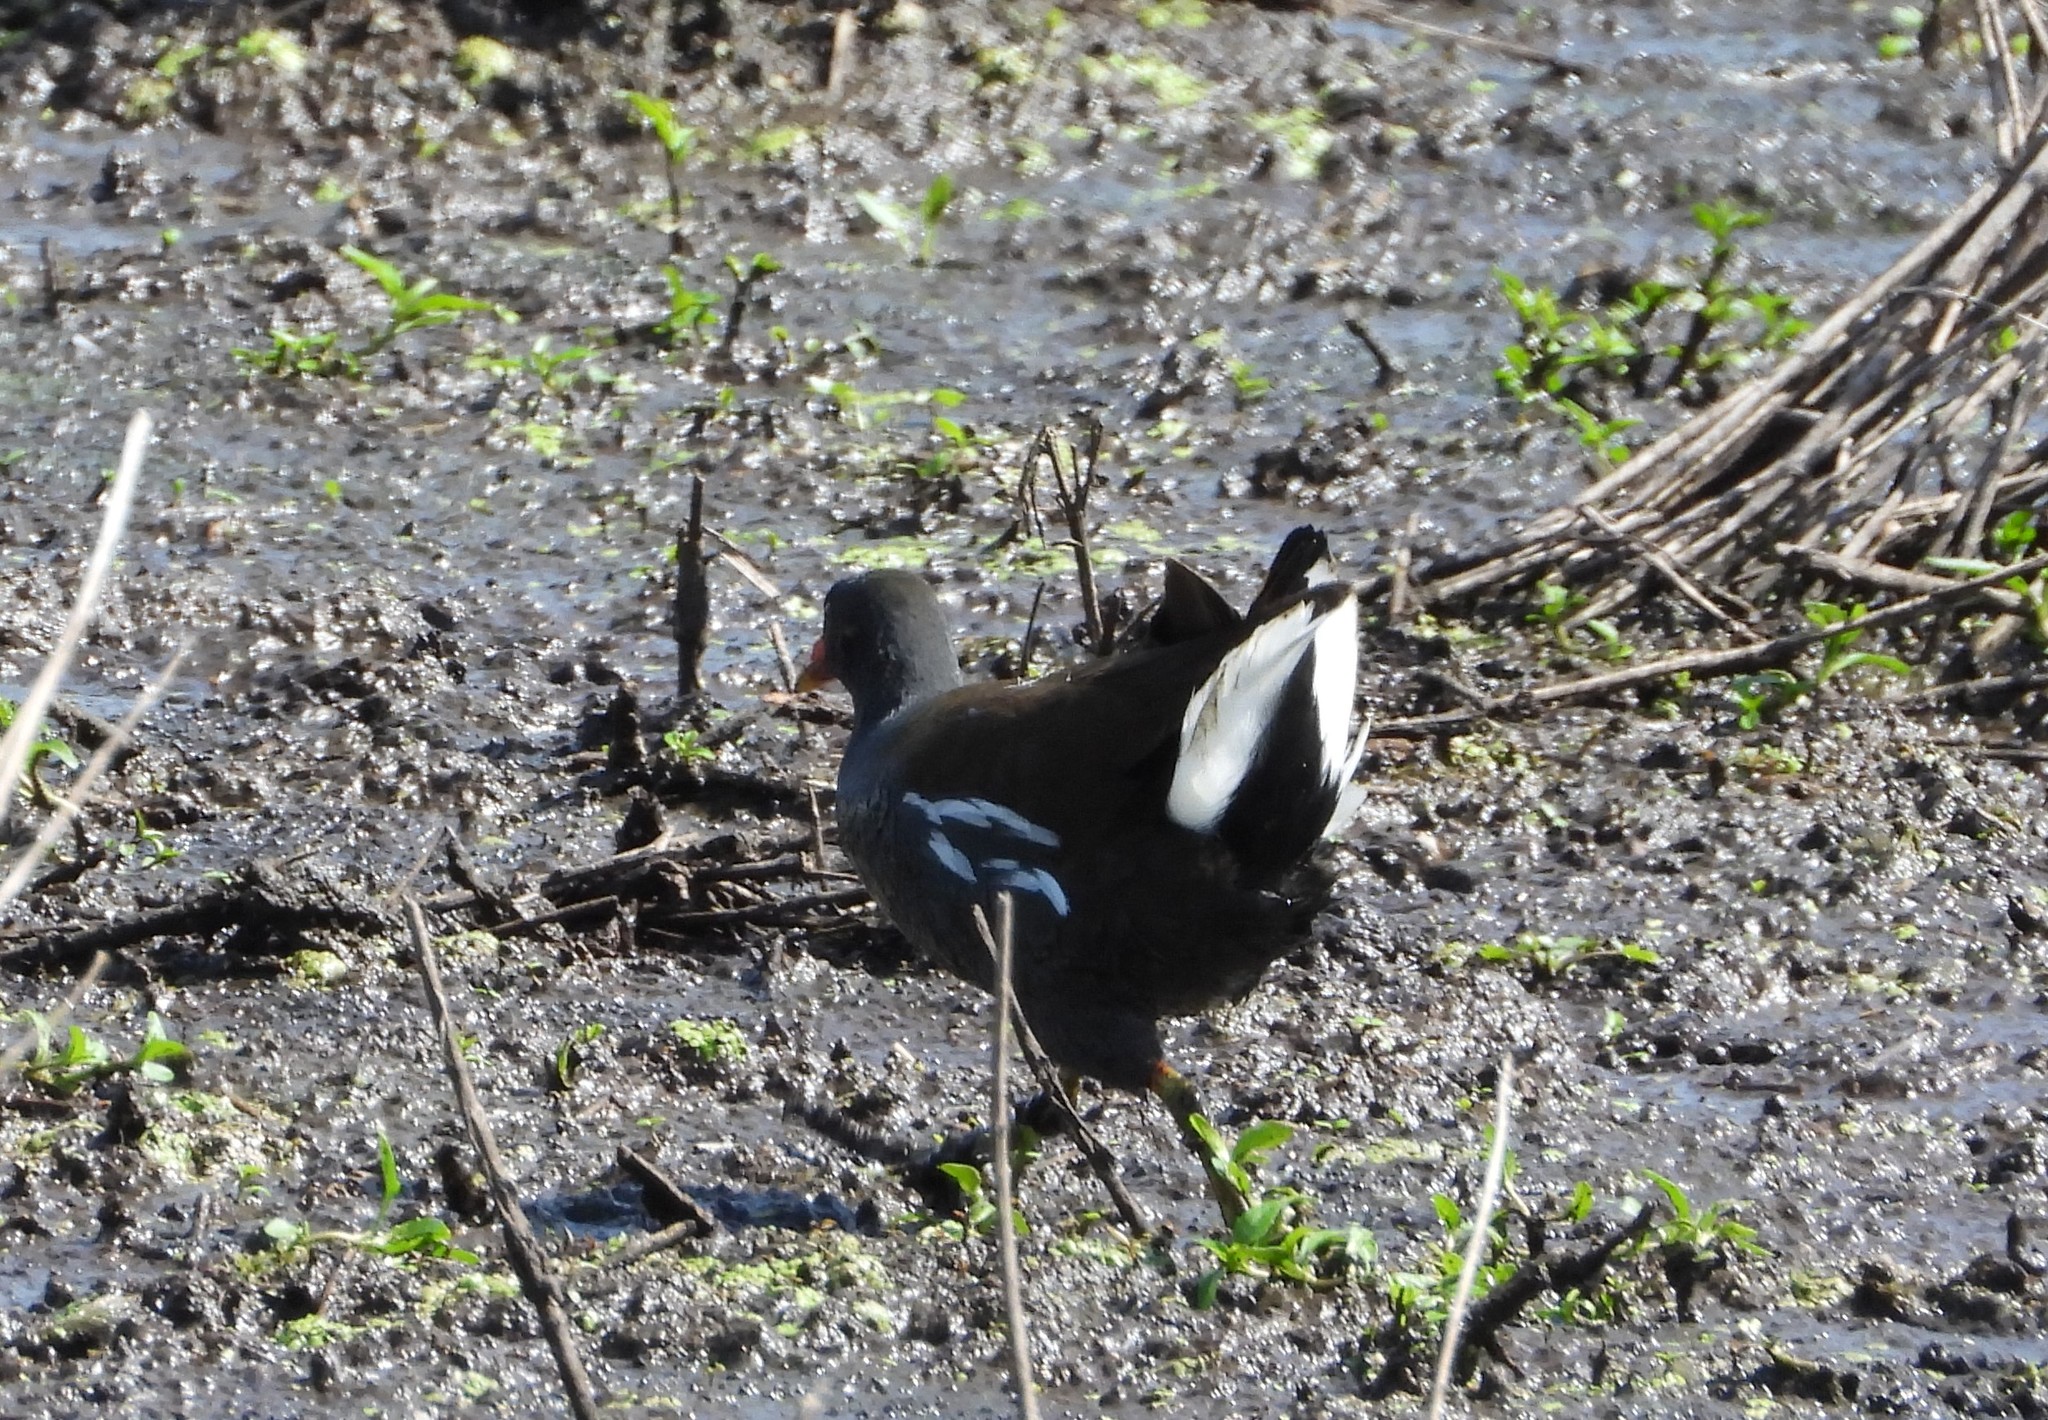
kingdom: Animalia
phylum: Chordata
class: Aves
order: Gruiformes
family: Rallidae
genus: Gallinula
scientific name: Gallinula chloropus
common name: Common moorhen
